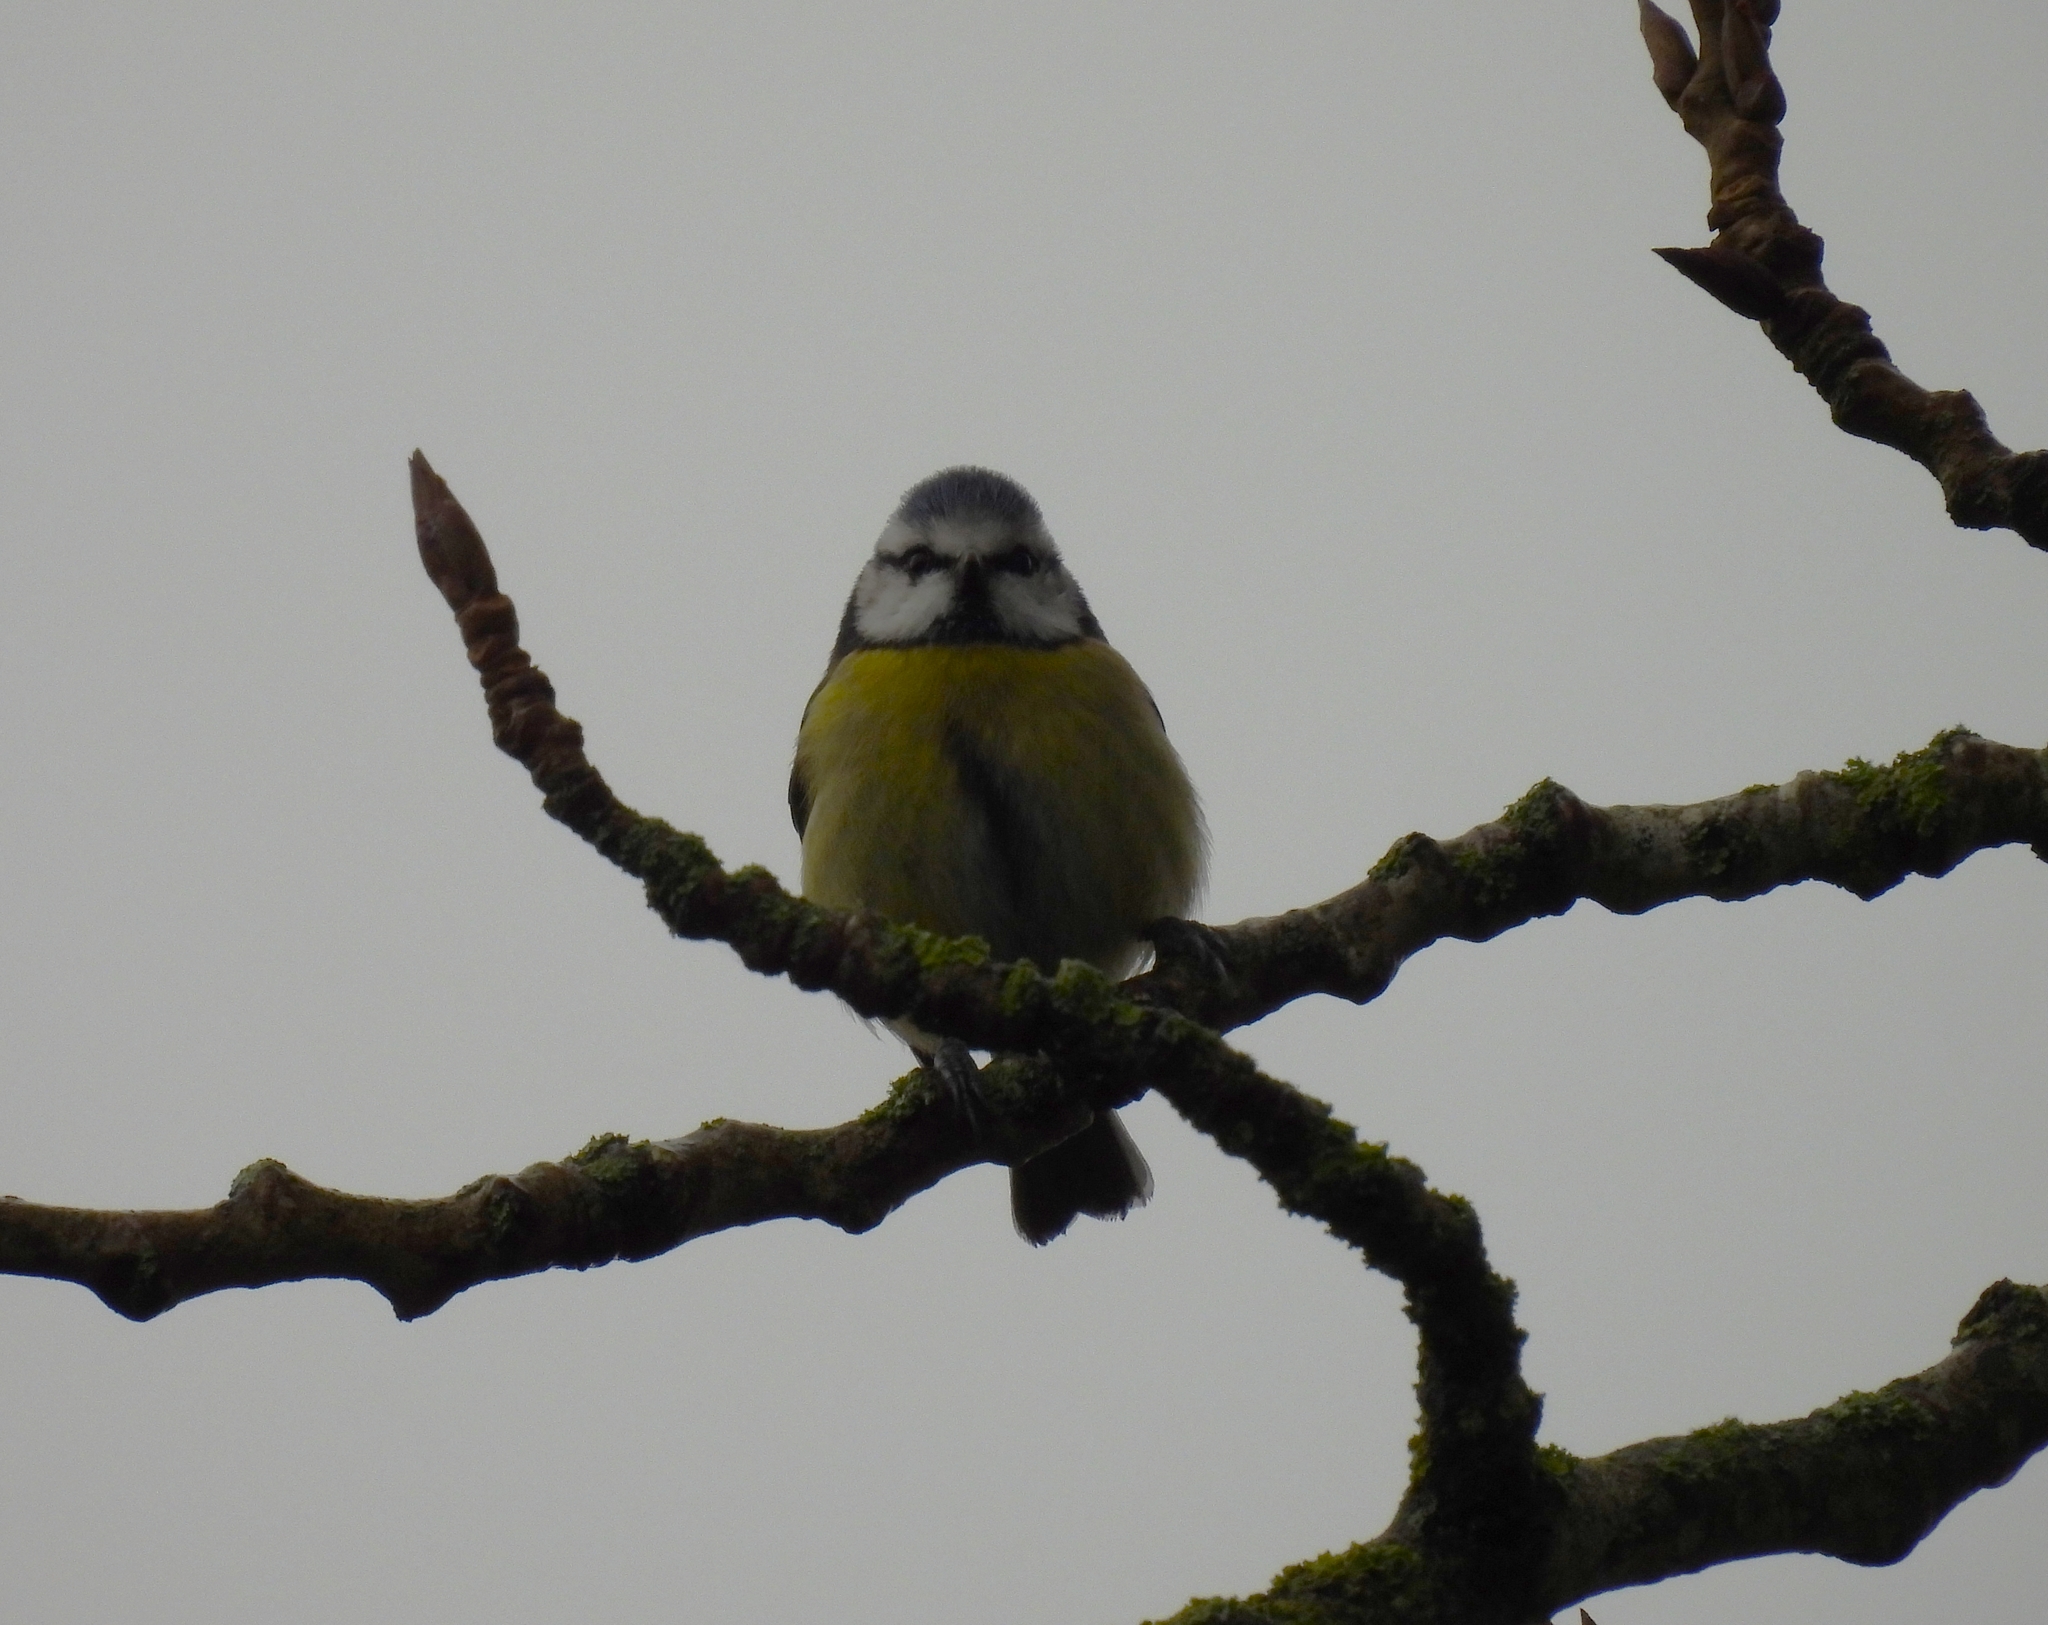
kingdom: Animalia
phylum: Chordata
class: Aves
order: Passeriformes
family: Paridae
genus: Cyanistes
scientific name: Cyanistes caeruleus
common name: Eurasian blue tit
